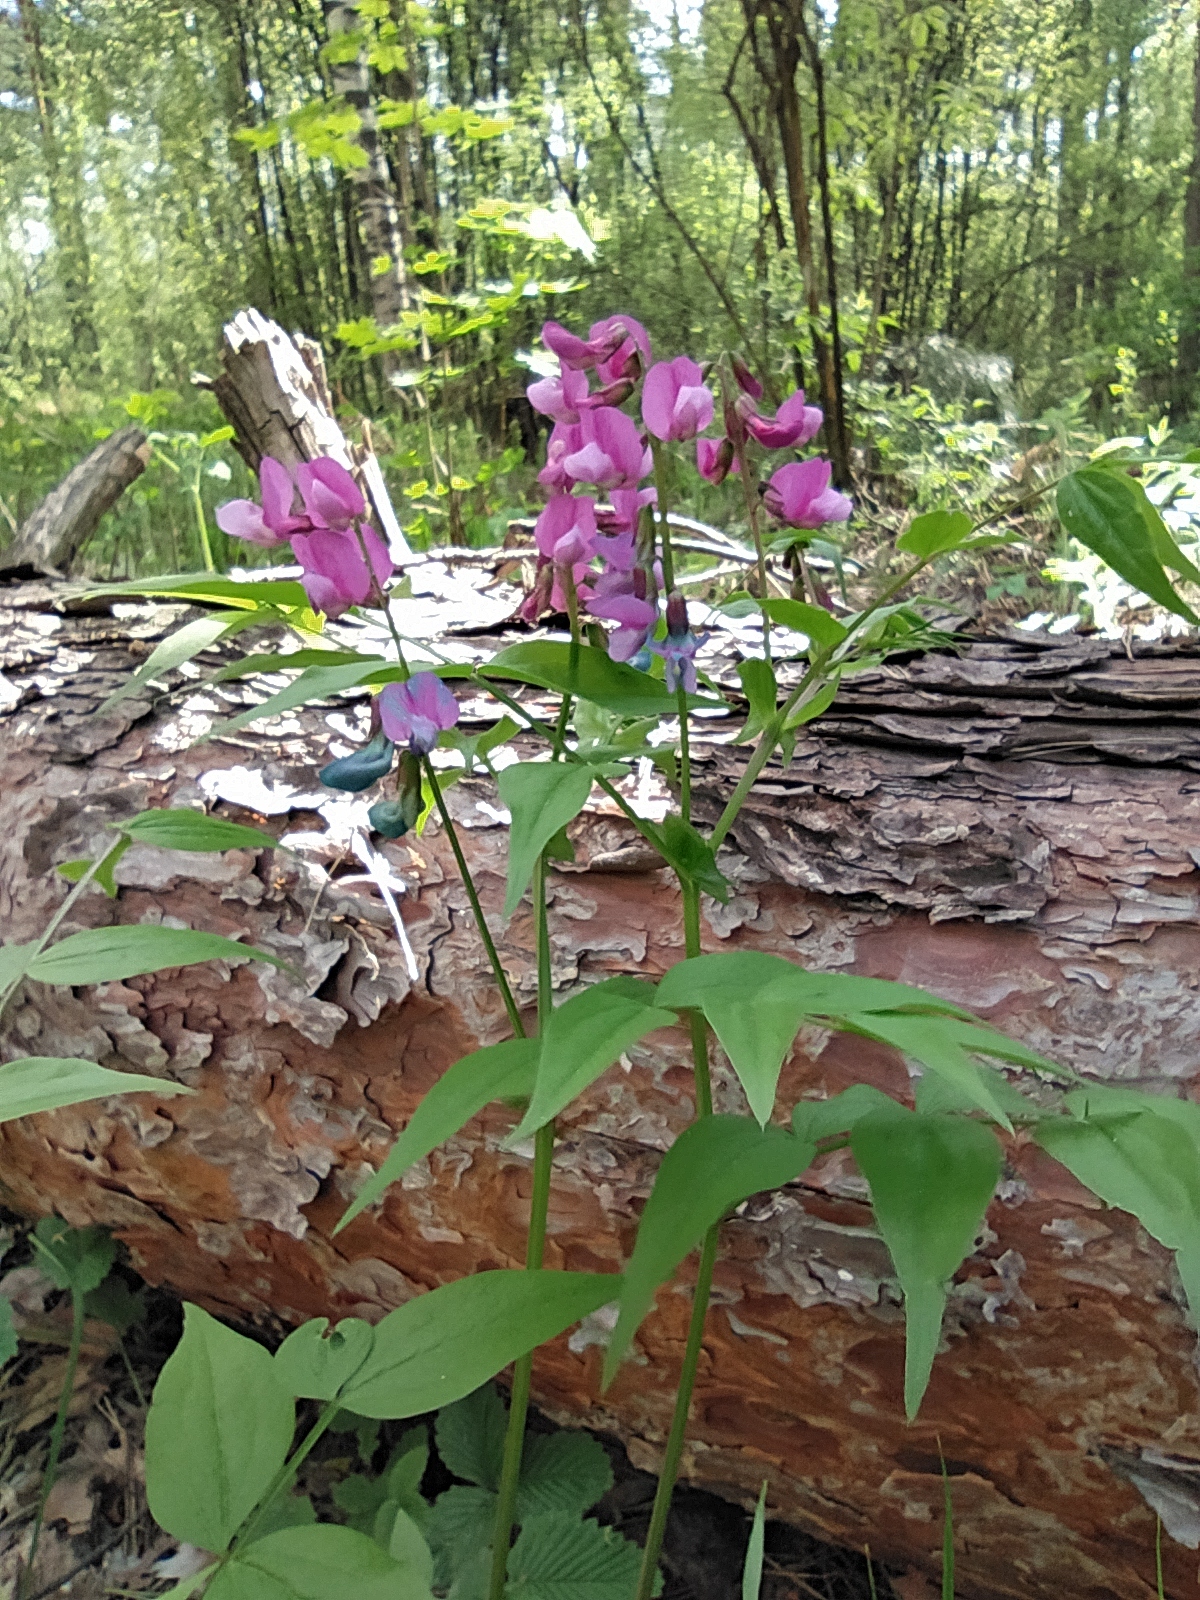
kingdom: Plantae
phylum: Tracheophyta
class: Magnoliopsida
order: Fabales
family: Fabaceae
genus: Lathyrus
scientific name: Lathyrus vernus
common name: Spring pea
